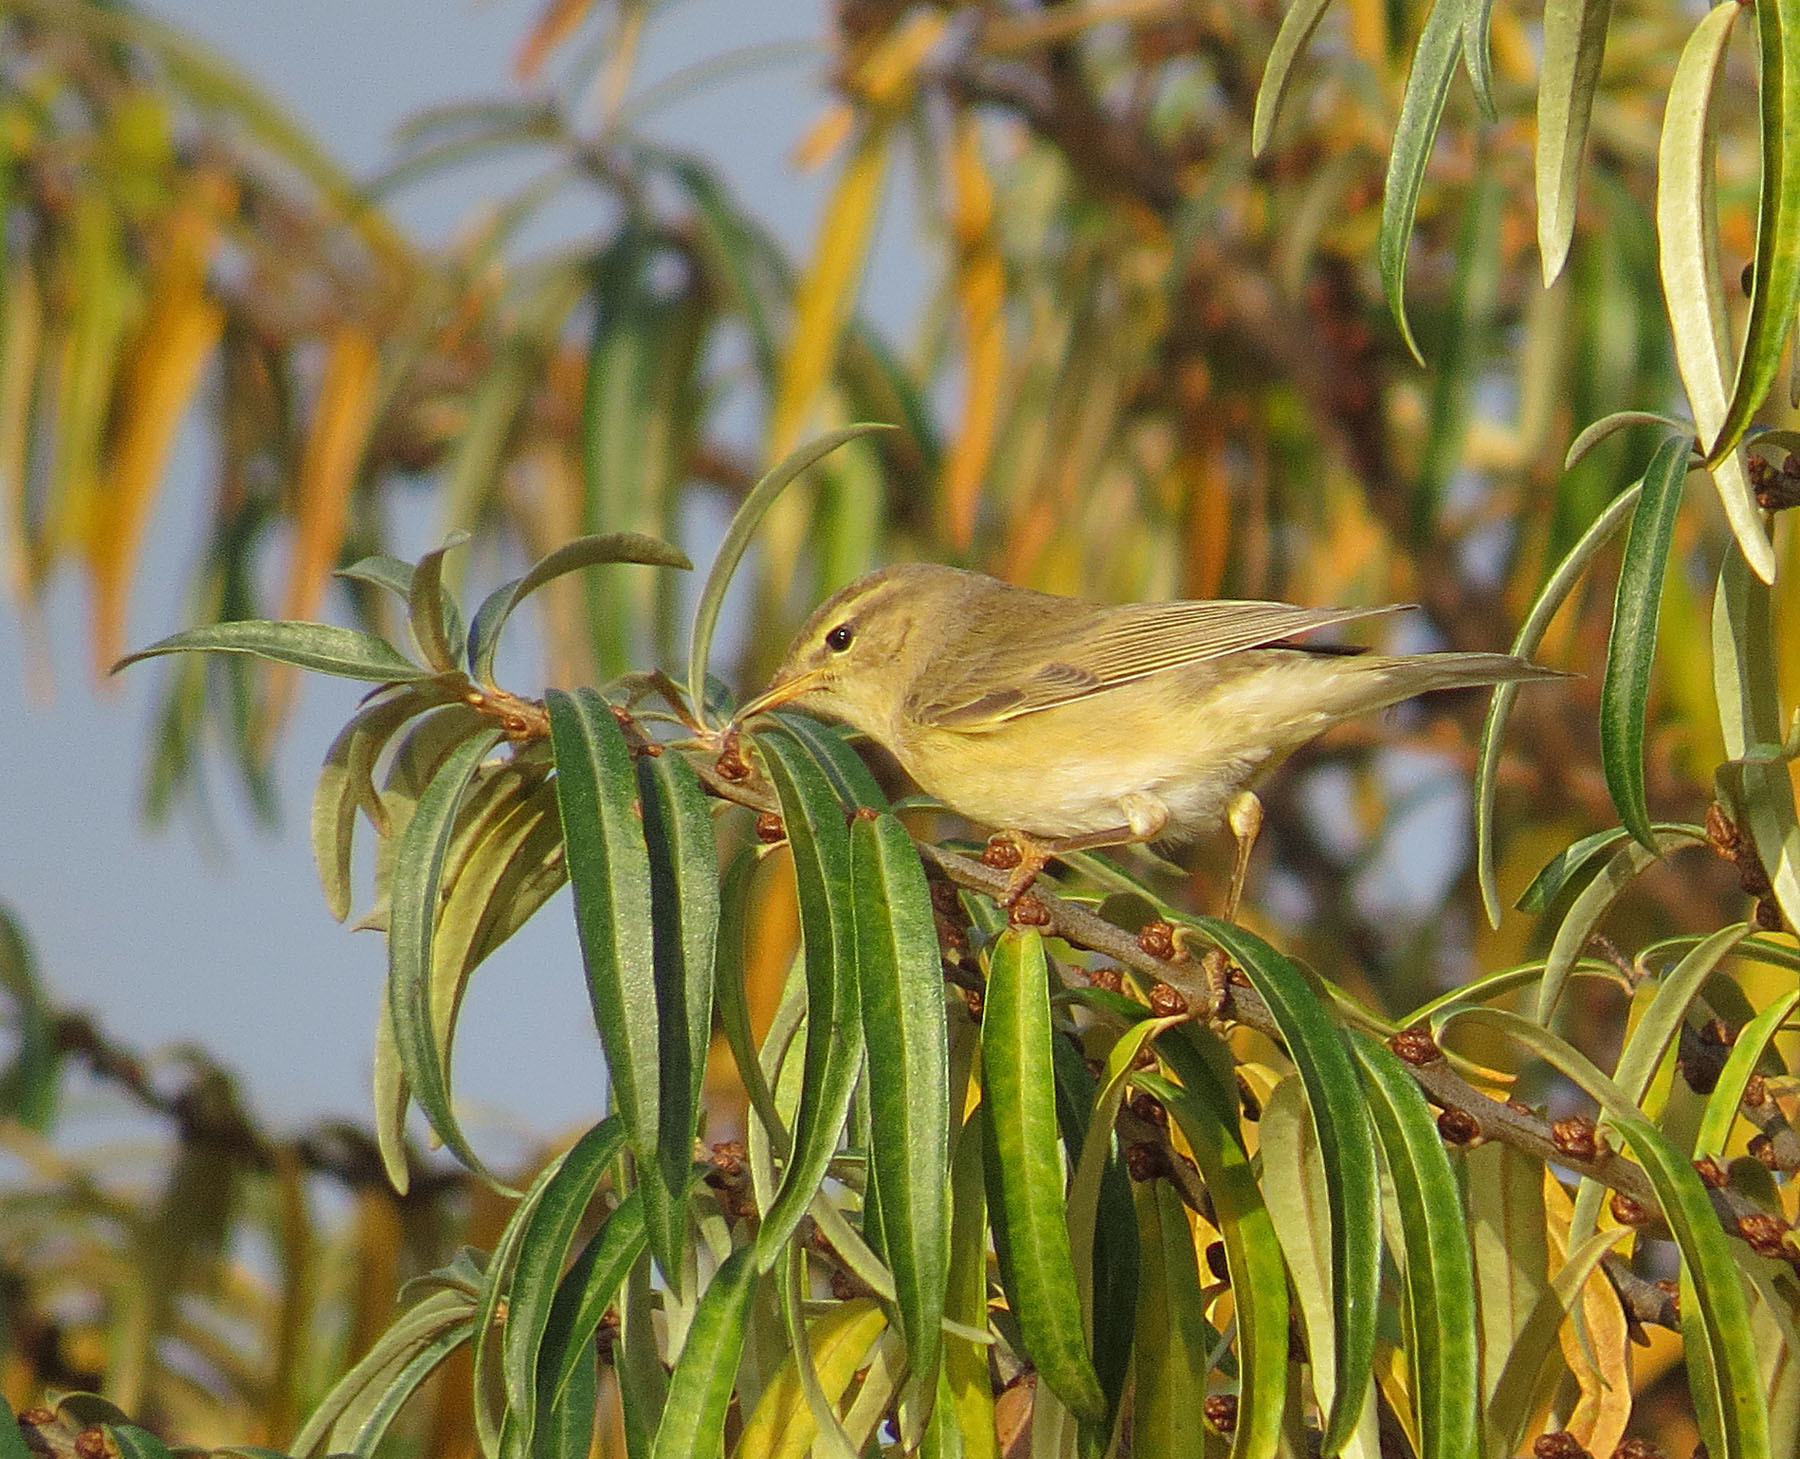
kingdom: Animalia
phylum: Chordata
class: Aves
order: Passeriformes
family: Phylloscopidae
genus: Phylloscopus
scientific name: Phylloscopus collybita
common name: Common chiffchaff
